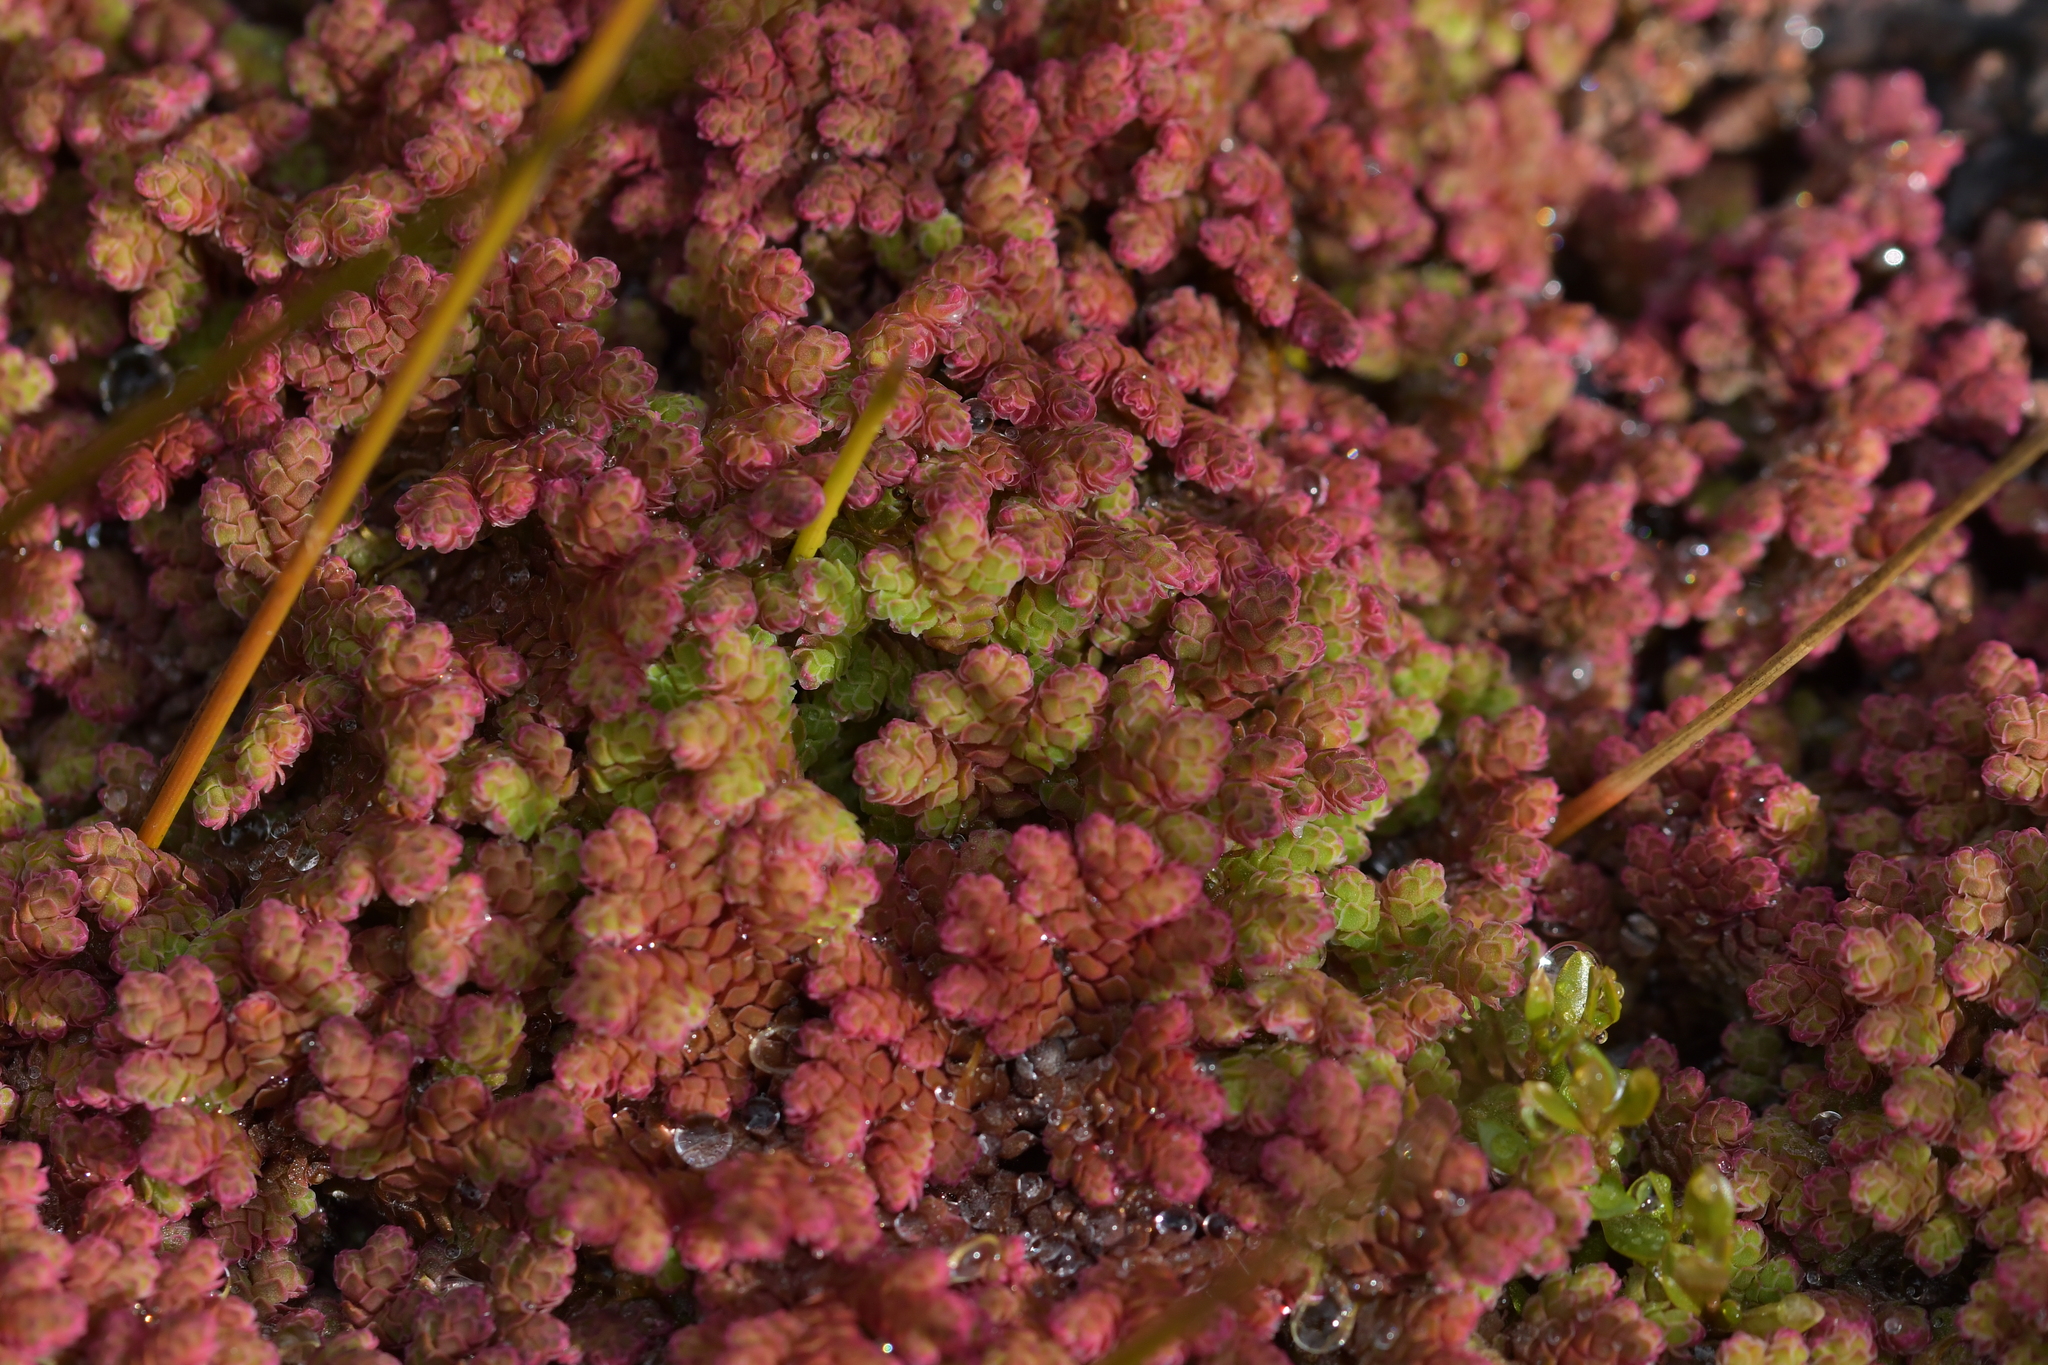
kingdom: Plantae
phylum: Tracheophyta
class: Polypodiopsida
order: Salviniales
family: Salviniaceae
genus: Azolla
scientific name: Azolla rubra
